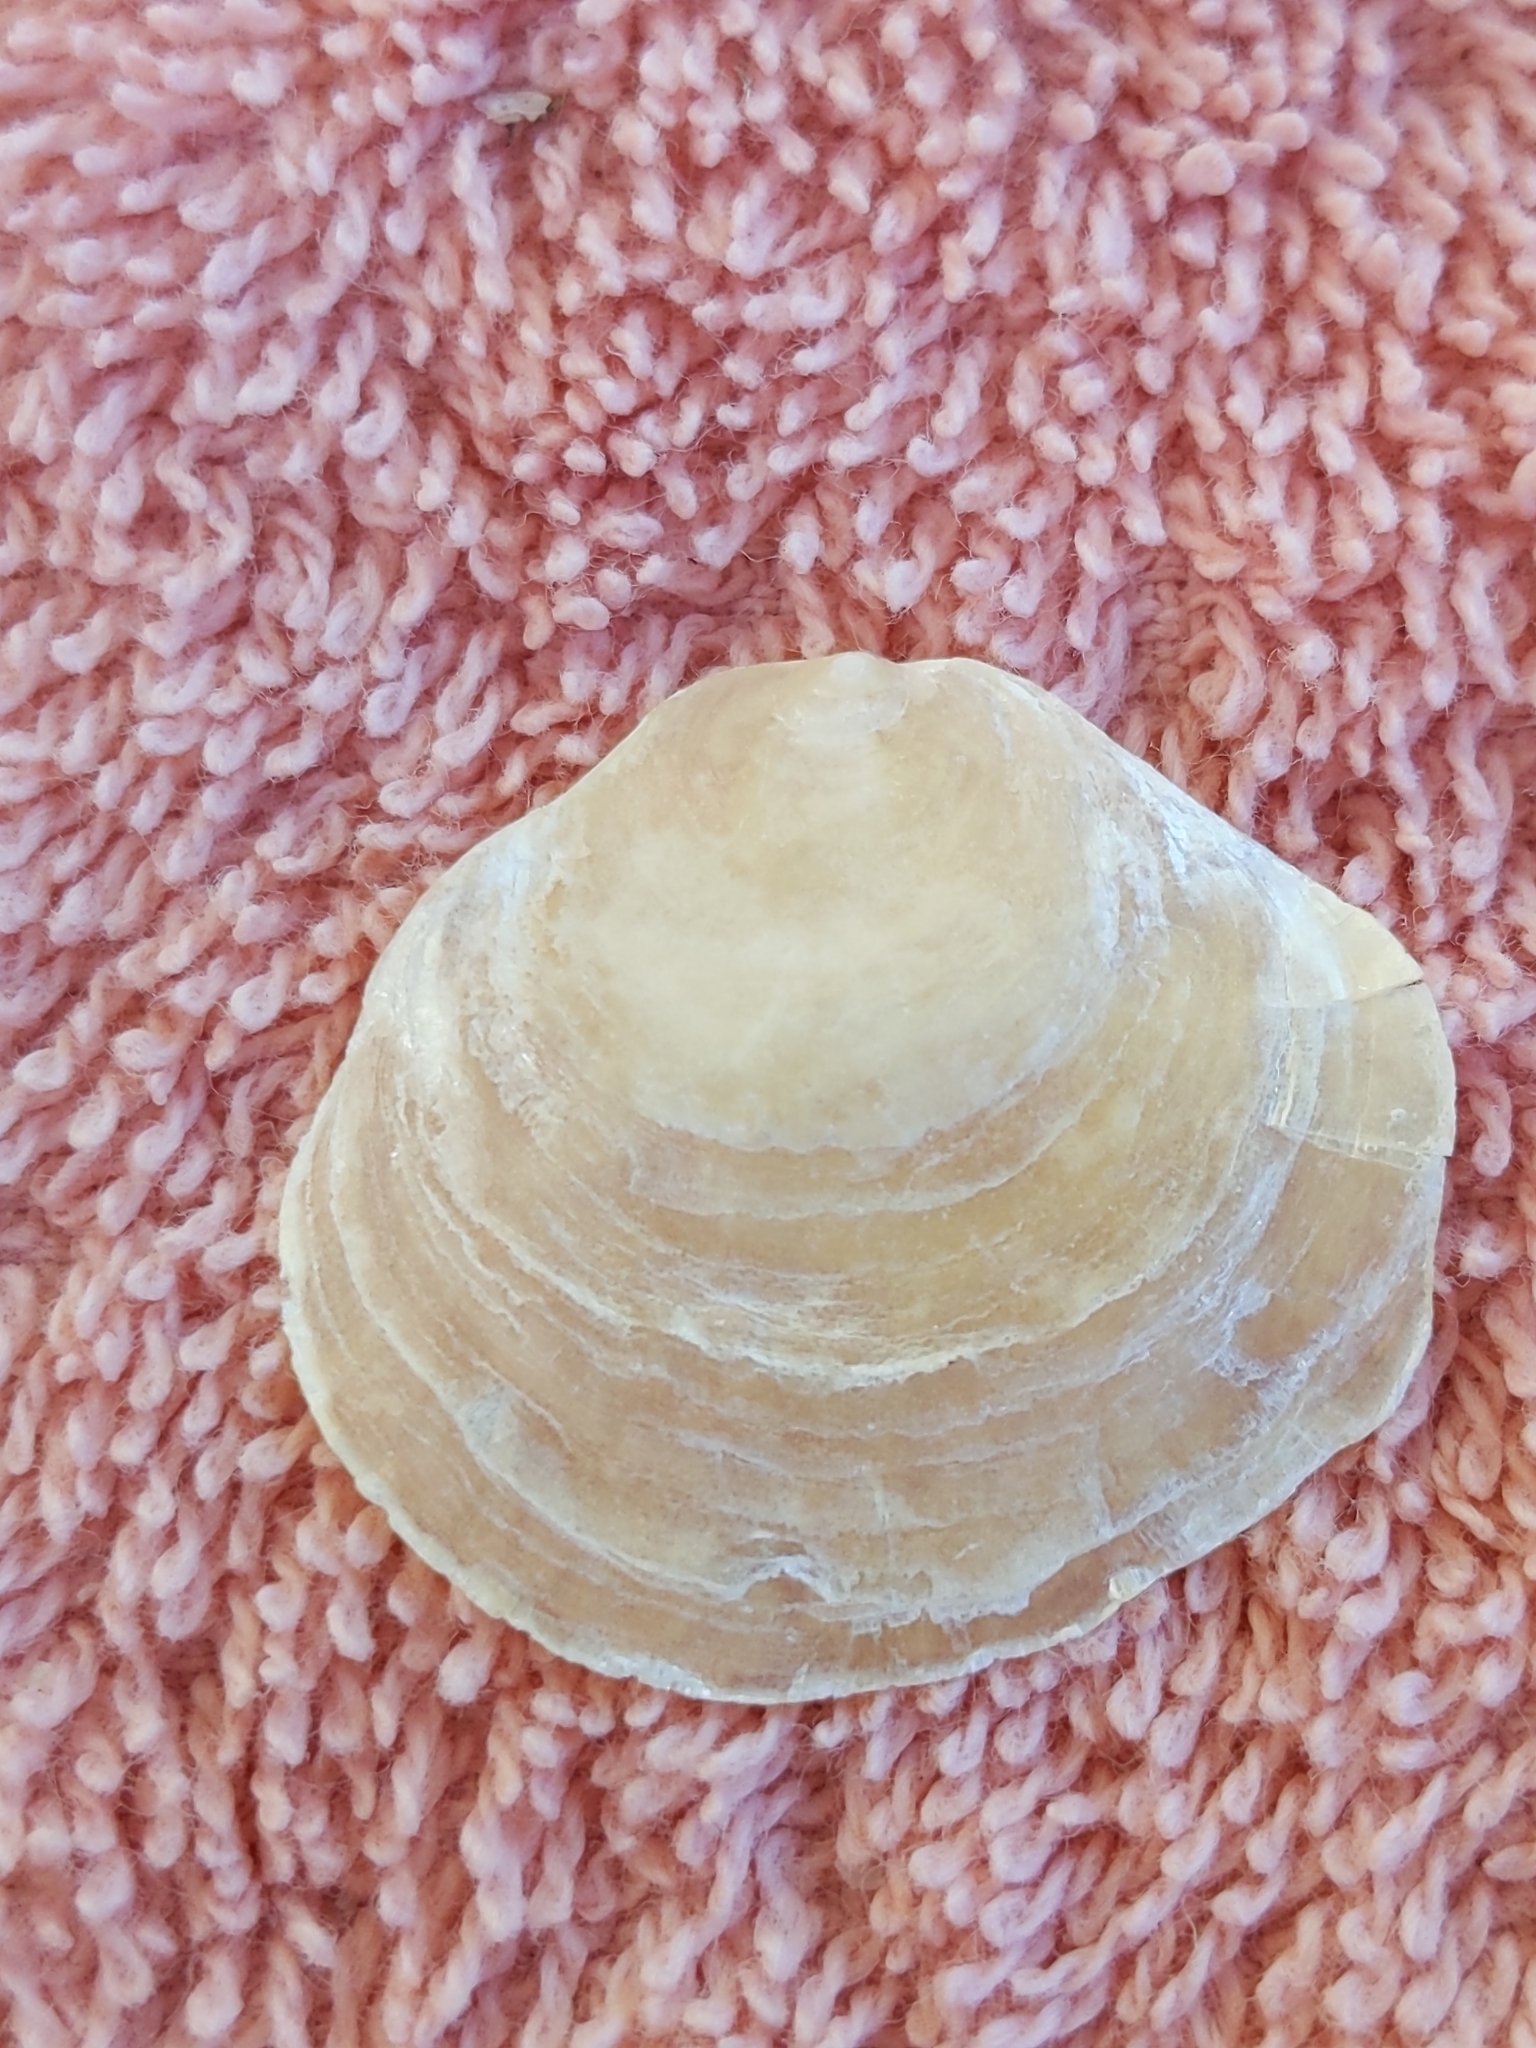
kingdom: Animalia
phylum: Mollusca
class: Bivalvia
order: Pectinida
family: Anomiidae
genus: Anomia
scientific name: Anomia simplex
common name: Common jingle shell
